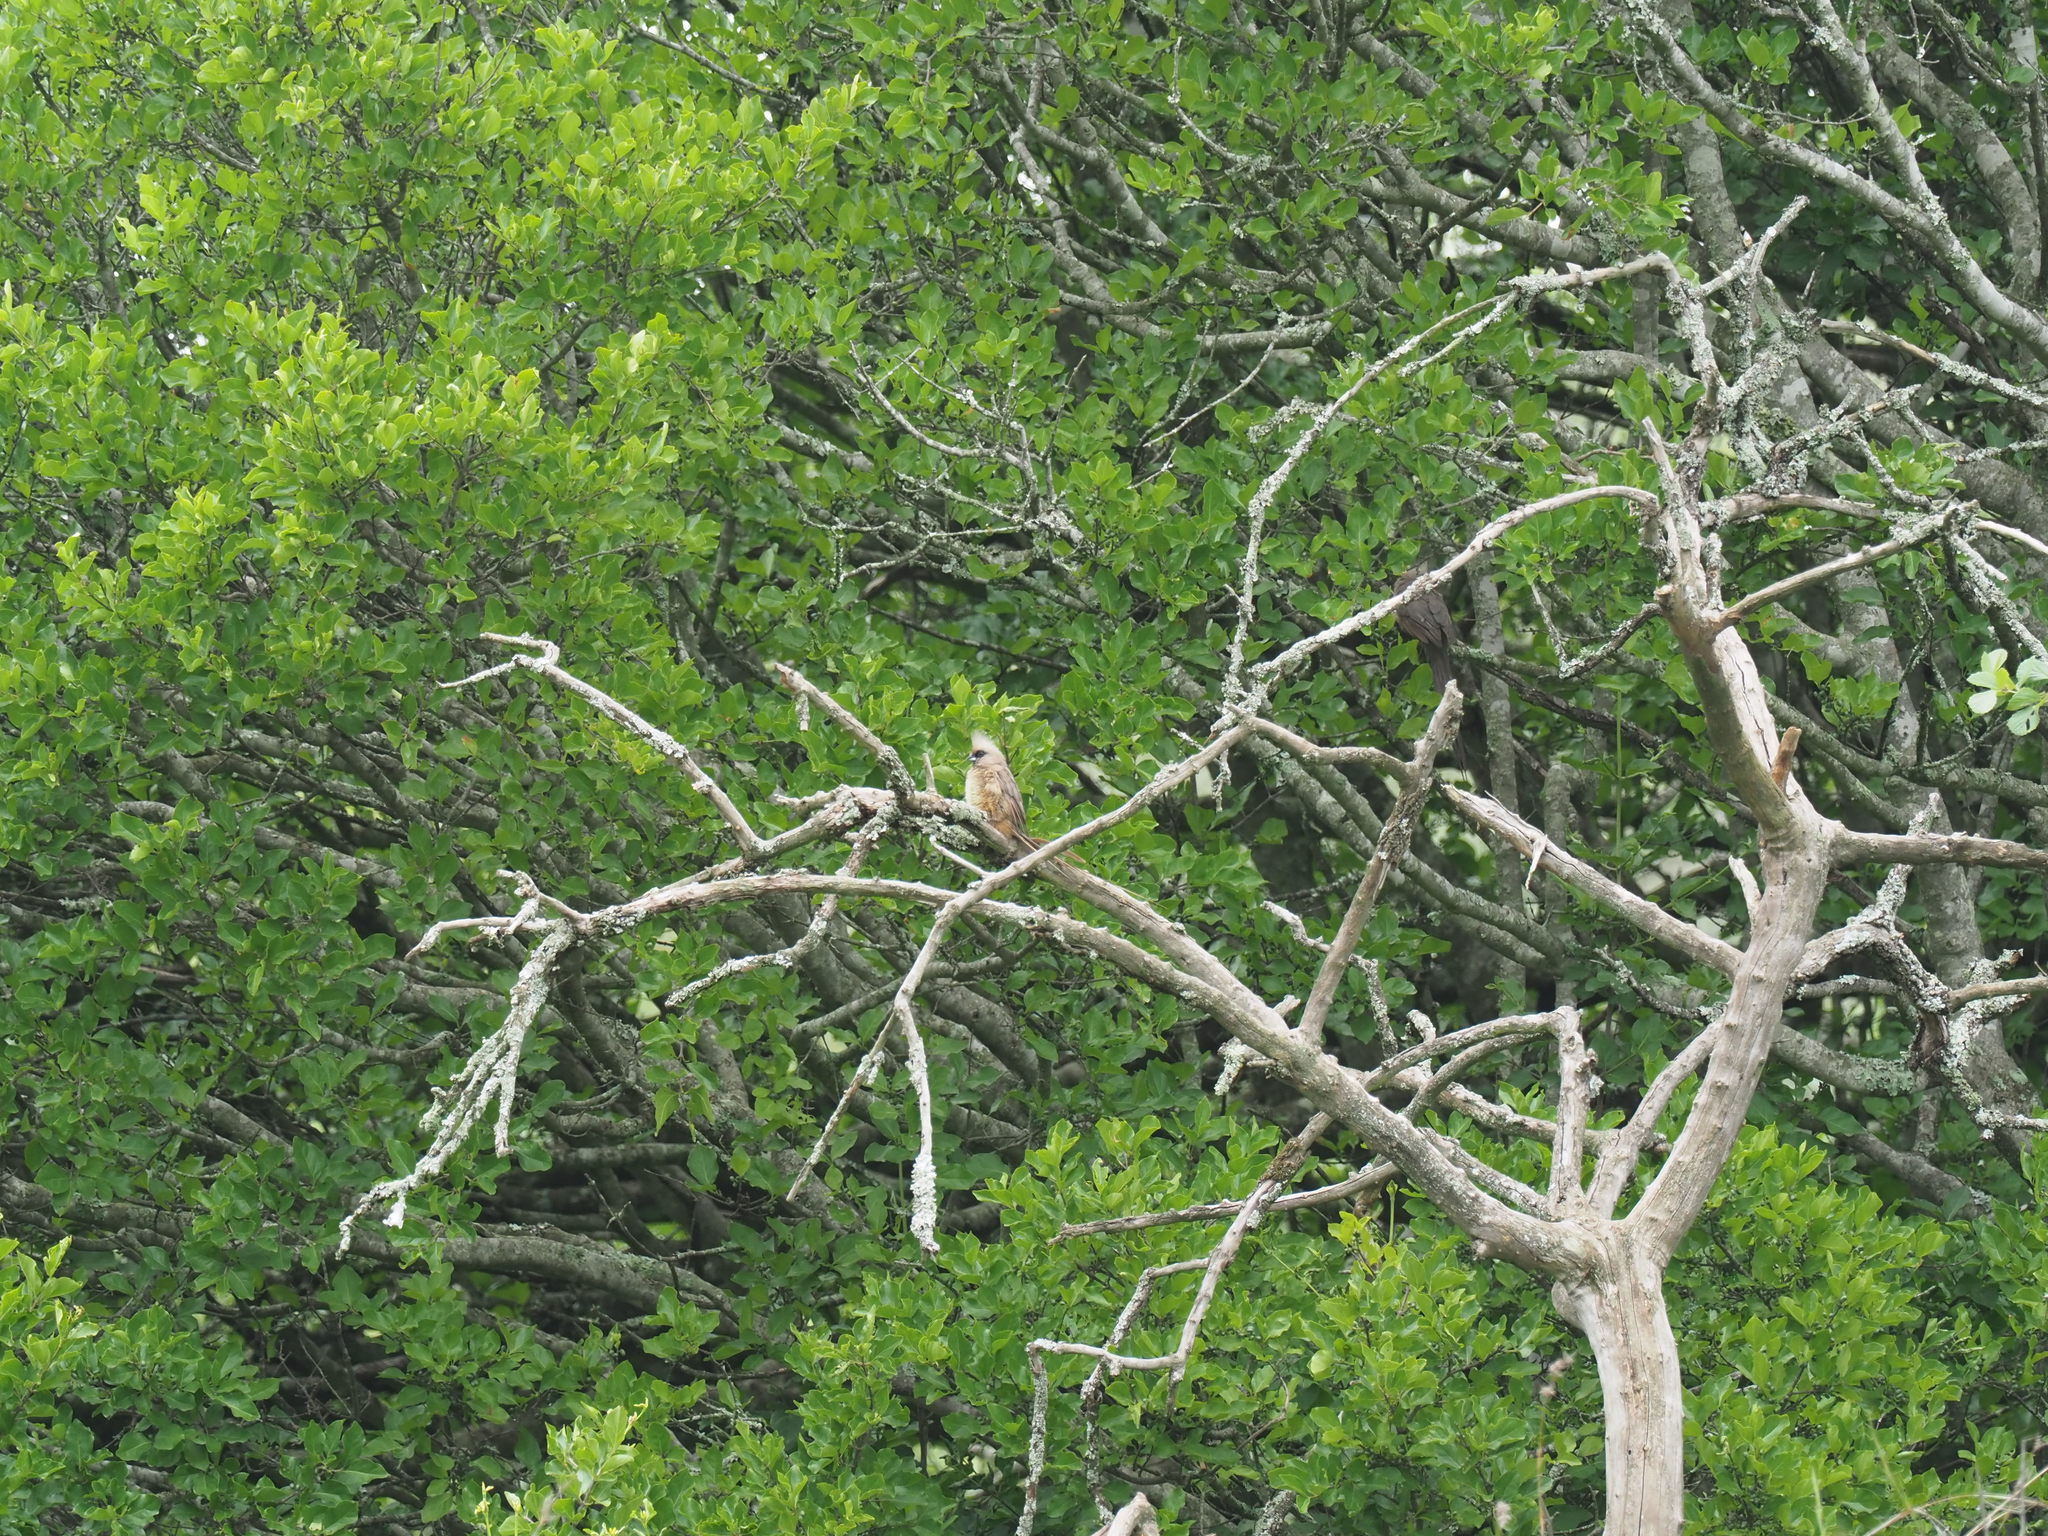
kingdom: Animalia
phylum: Chordata
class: Aves
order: Coliiformes
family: Coliidae
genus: Colius
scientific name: Colius striatus
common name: Speckled mousebird
